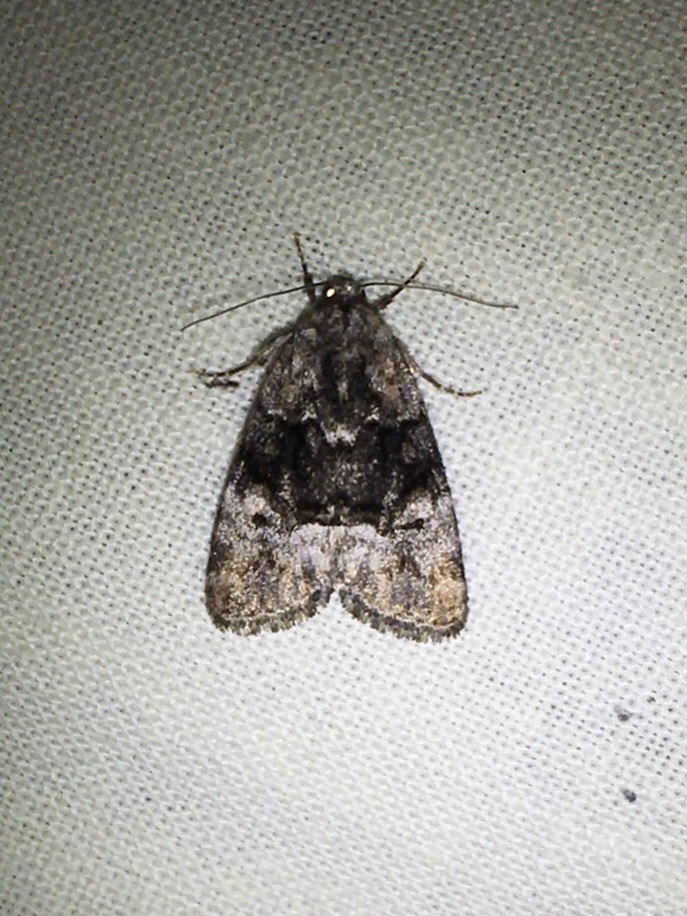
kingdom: Animalia
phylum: Arthropoda
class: Insecta
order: Lepidoptera
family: Noctuidae
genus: Elaphria
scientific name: Elaphria georgei
